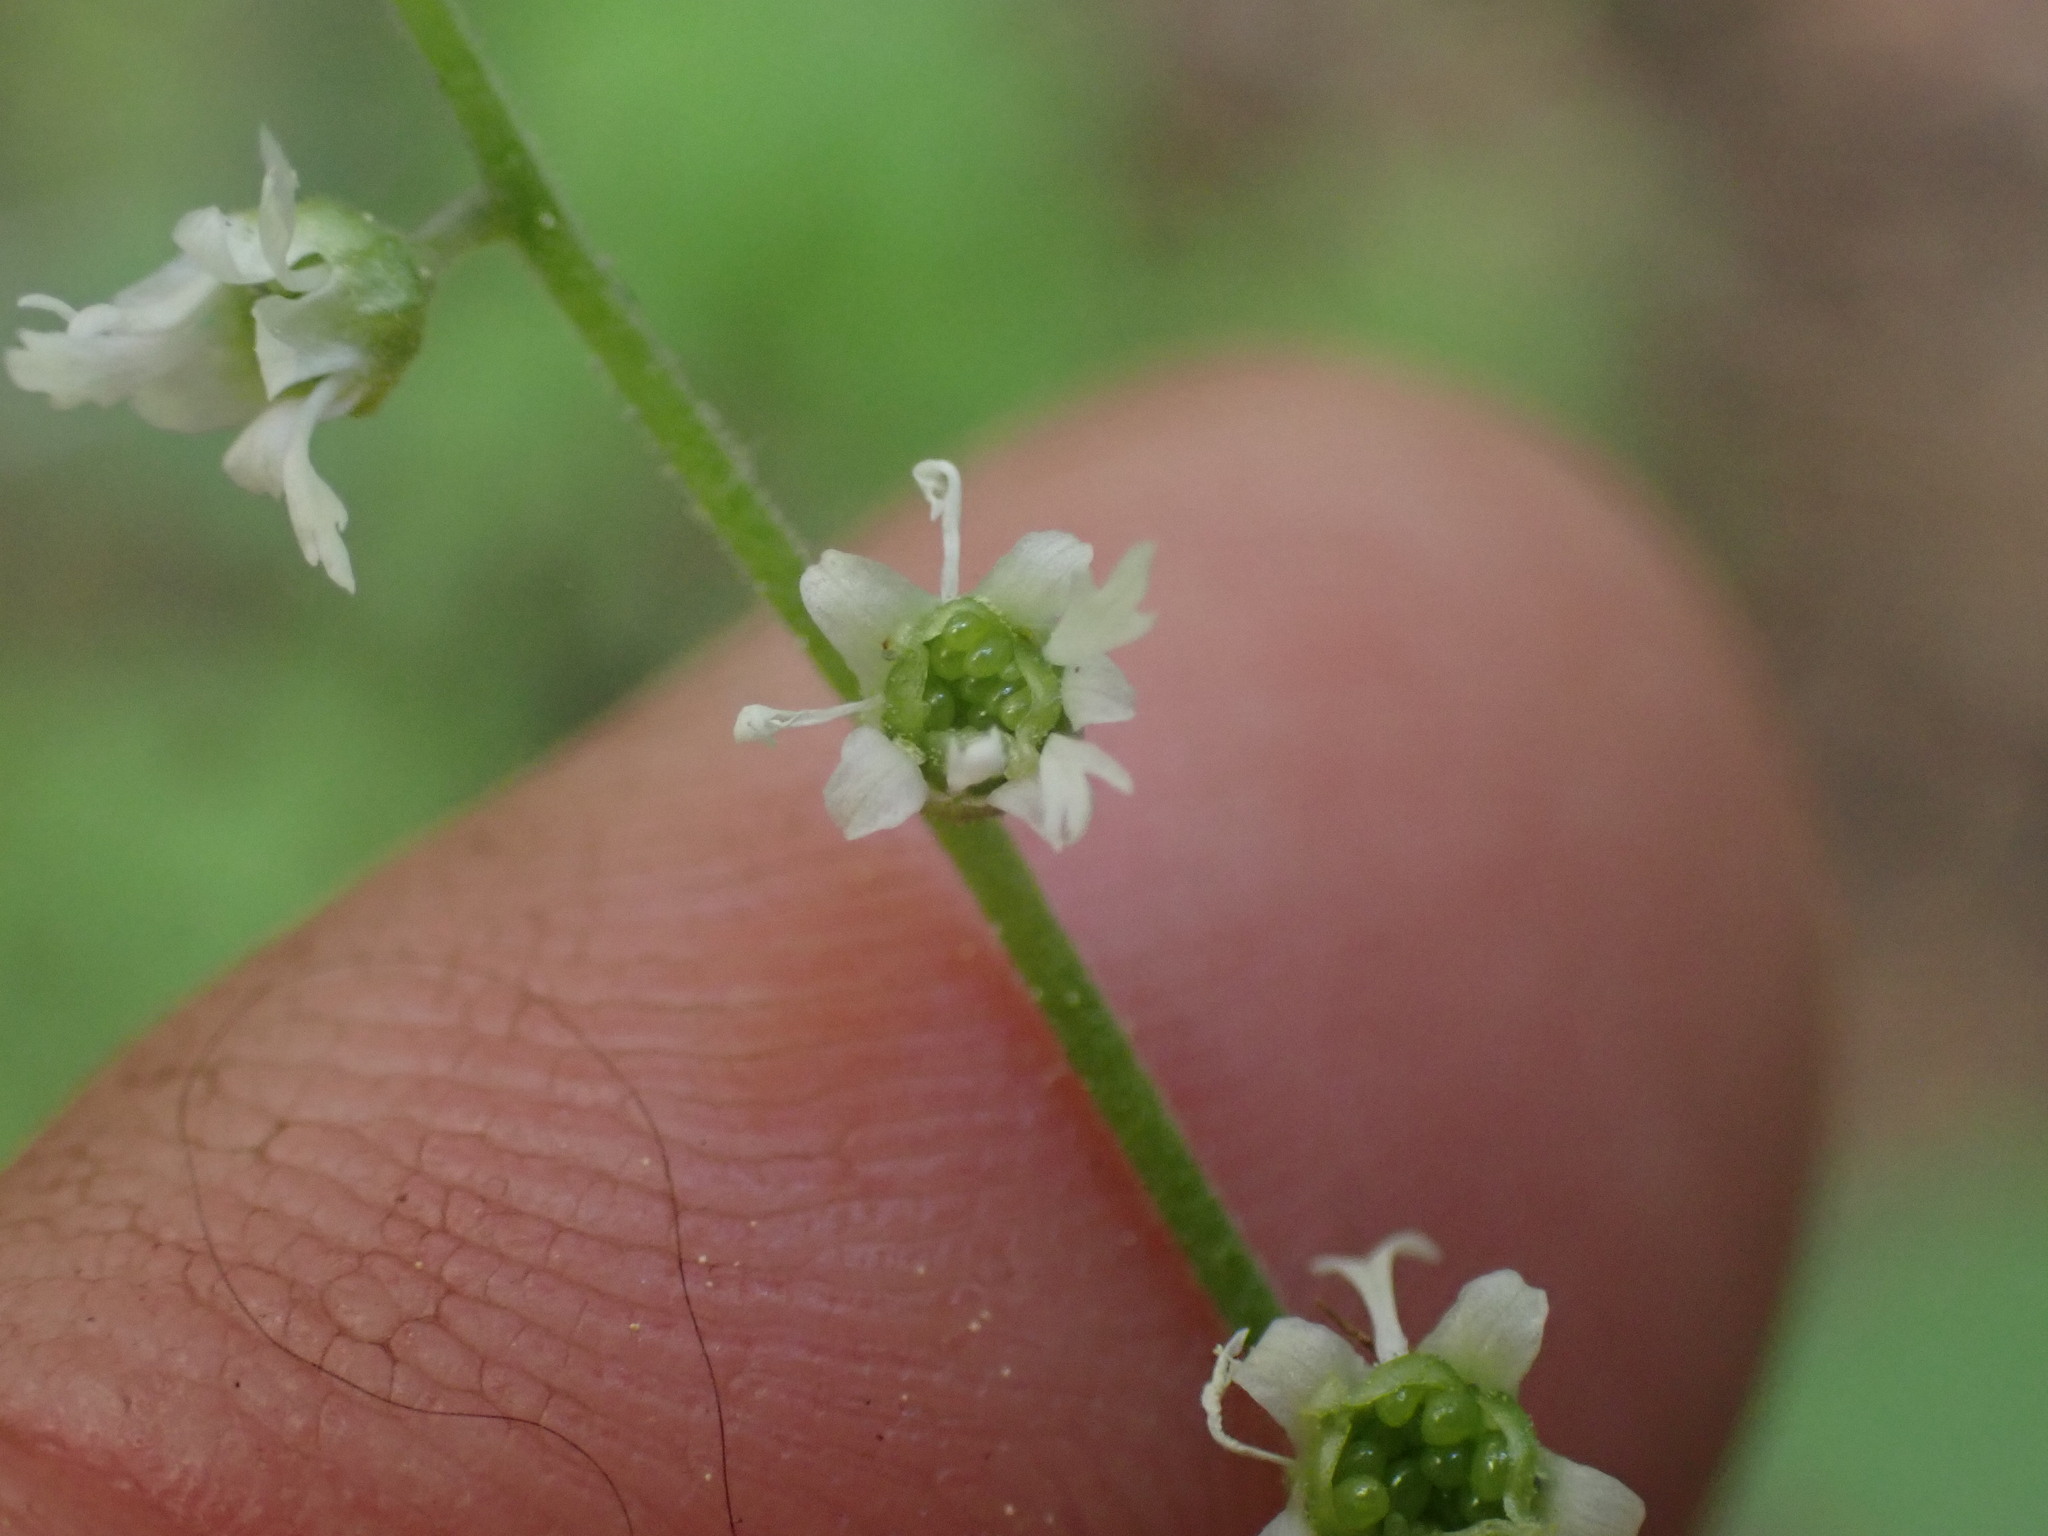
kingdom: Plantae
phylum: Tracheophyta
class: Magnoliopsida
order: Saxifragales
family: Saxifragaceae
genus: Ozomelis
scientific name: Ozomelis trifida
